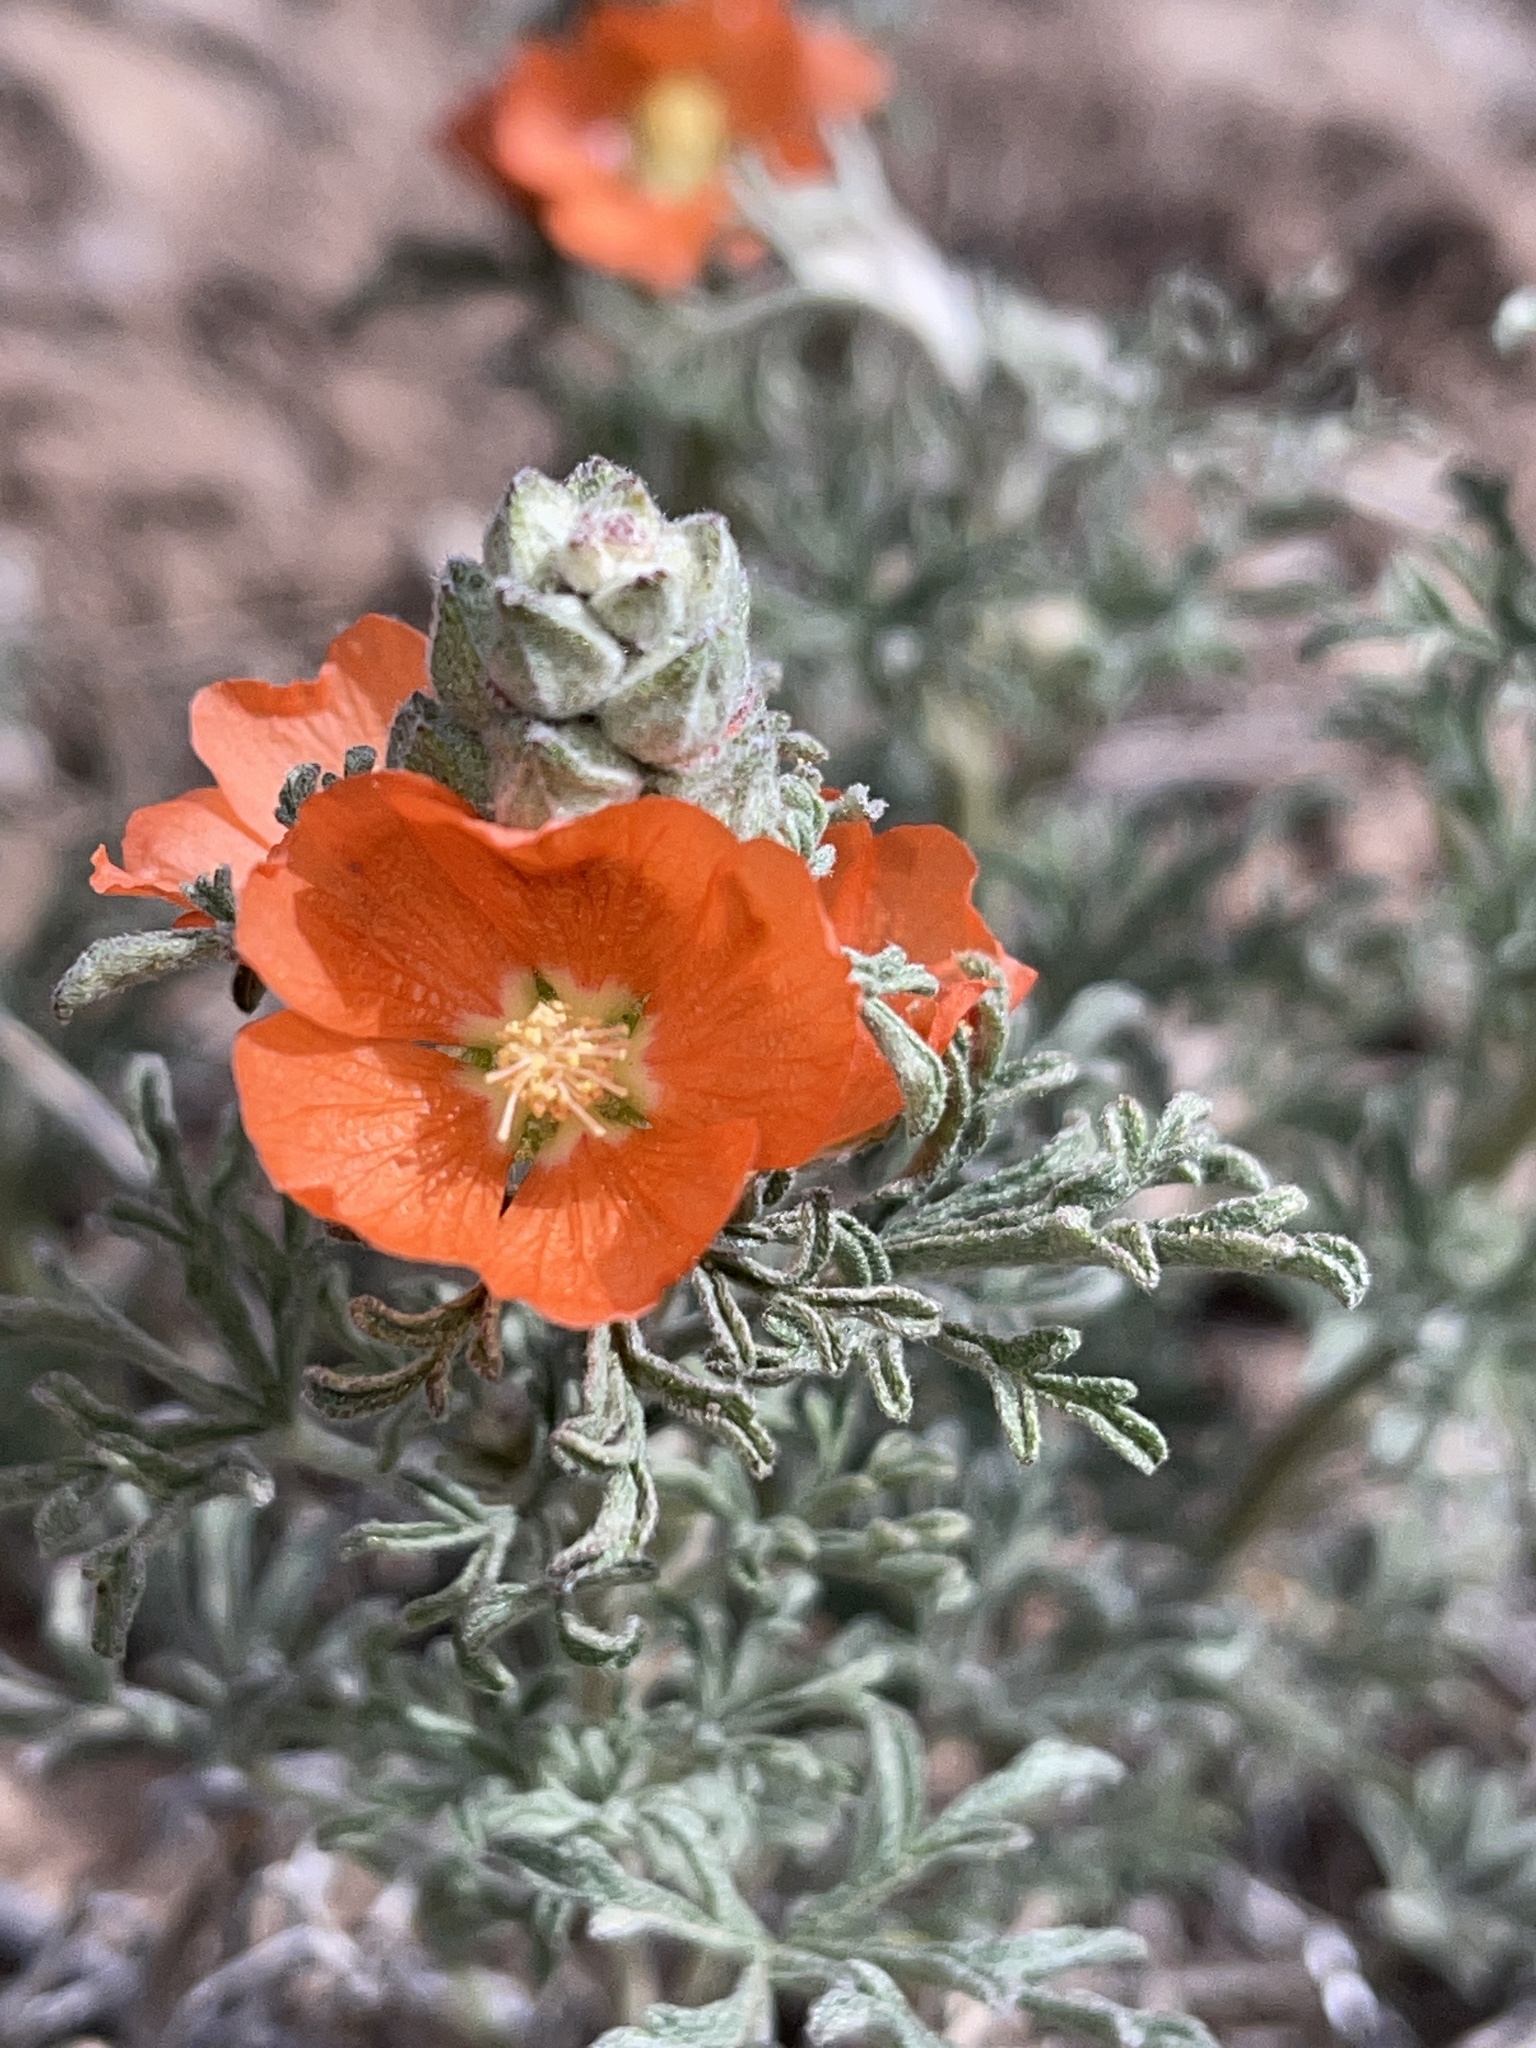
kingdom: Plantae
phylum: Tracheophyta
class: Magnoliopsida
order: Malvales
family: Malvaceae
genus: Sphaeralcea
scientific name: Sphaeralcea coccinea
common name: Moss-rose
